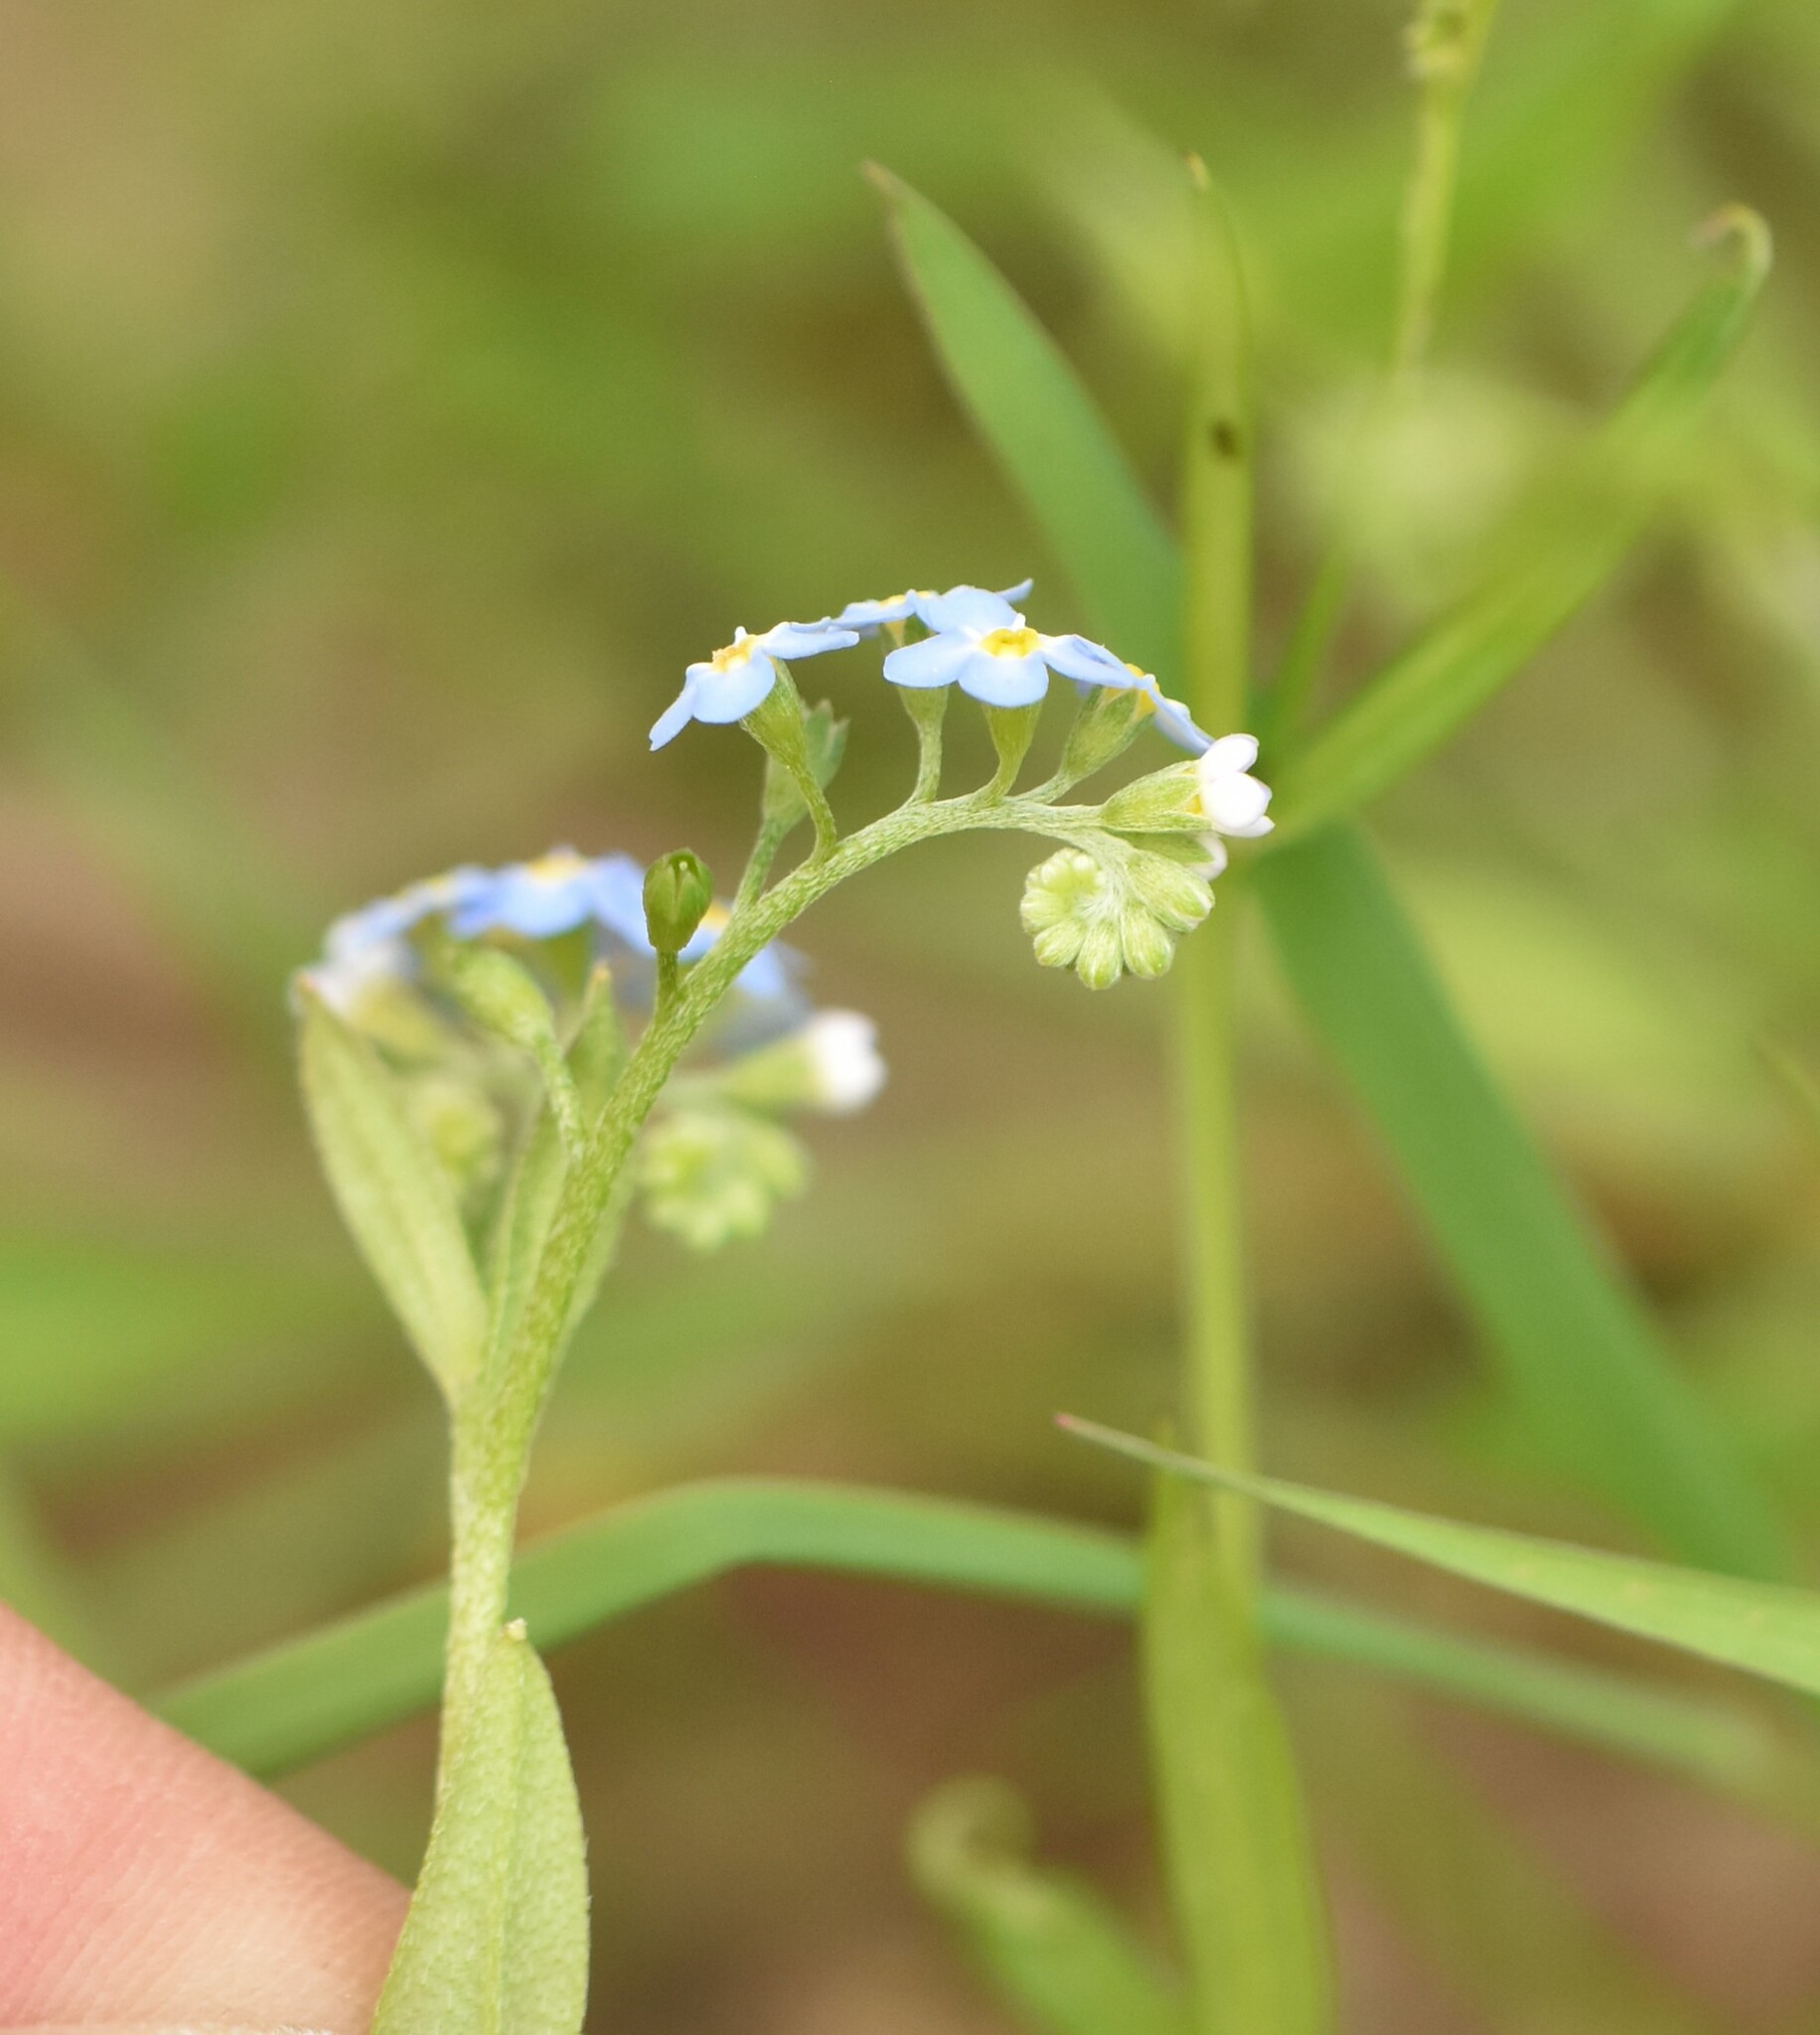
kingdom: Plantae
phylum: Tracheophyta
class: Magnoliopsida
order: Boraginales
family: Boraginaceae
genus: Myosotis
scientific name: Myosotis scorpioides
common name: Water forget-me-not
